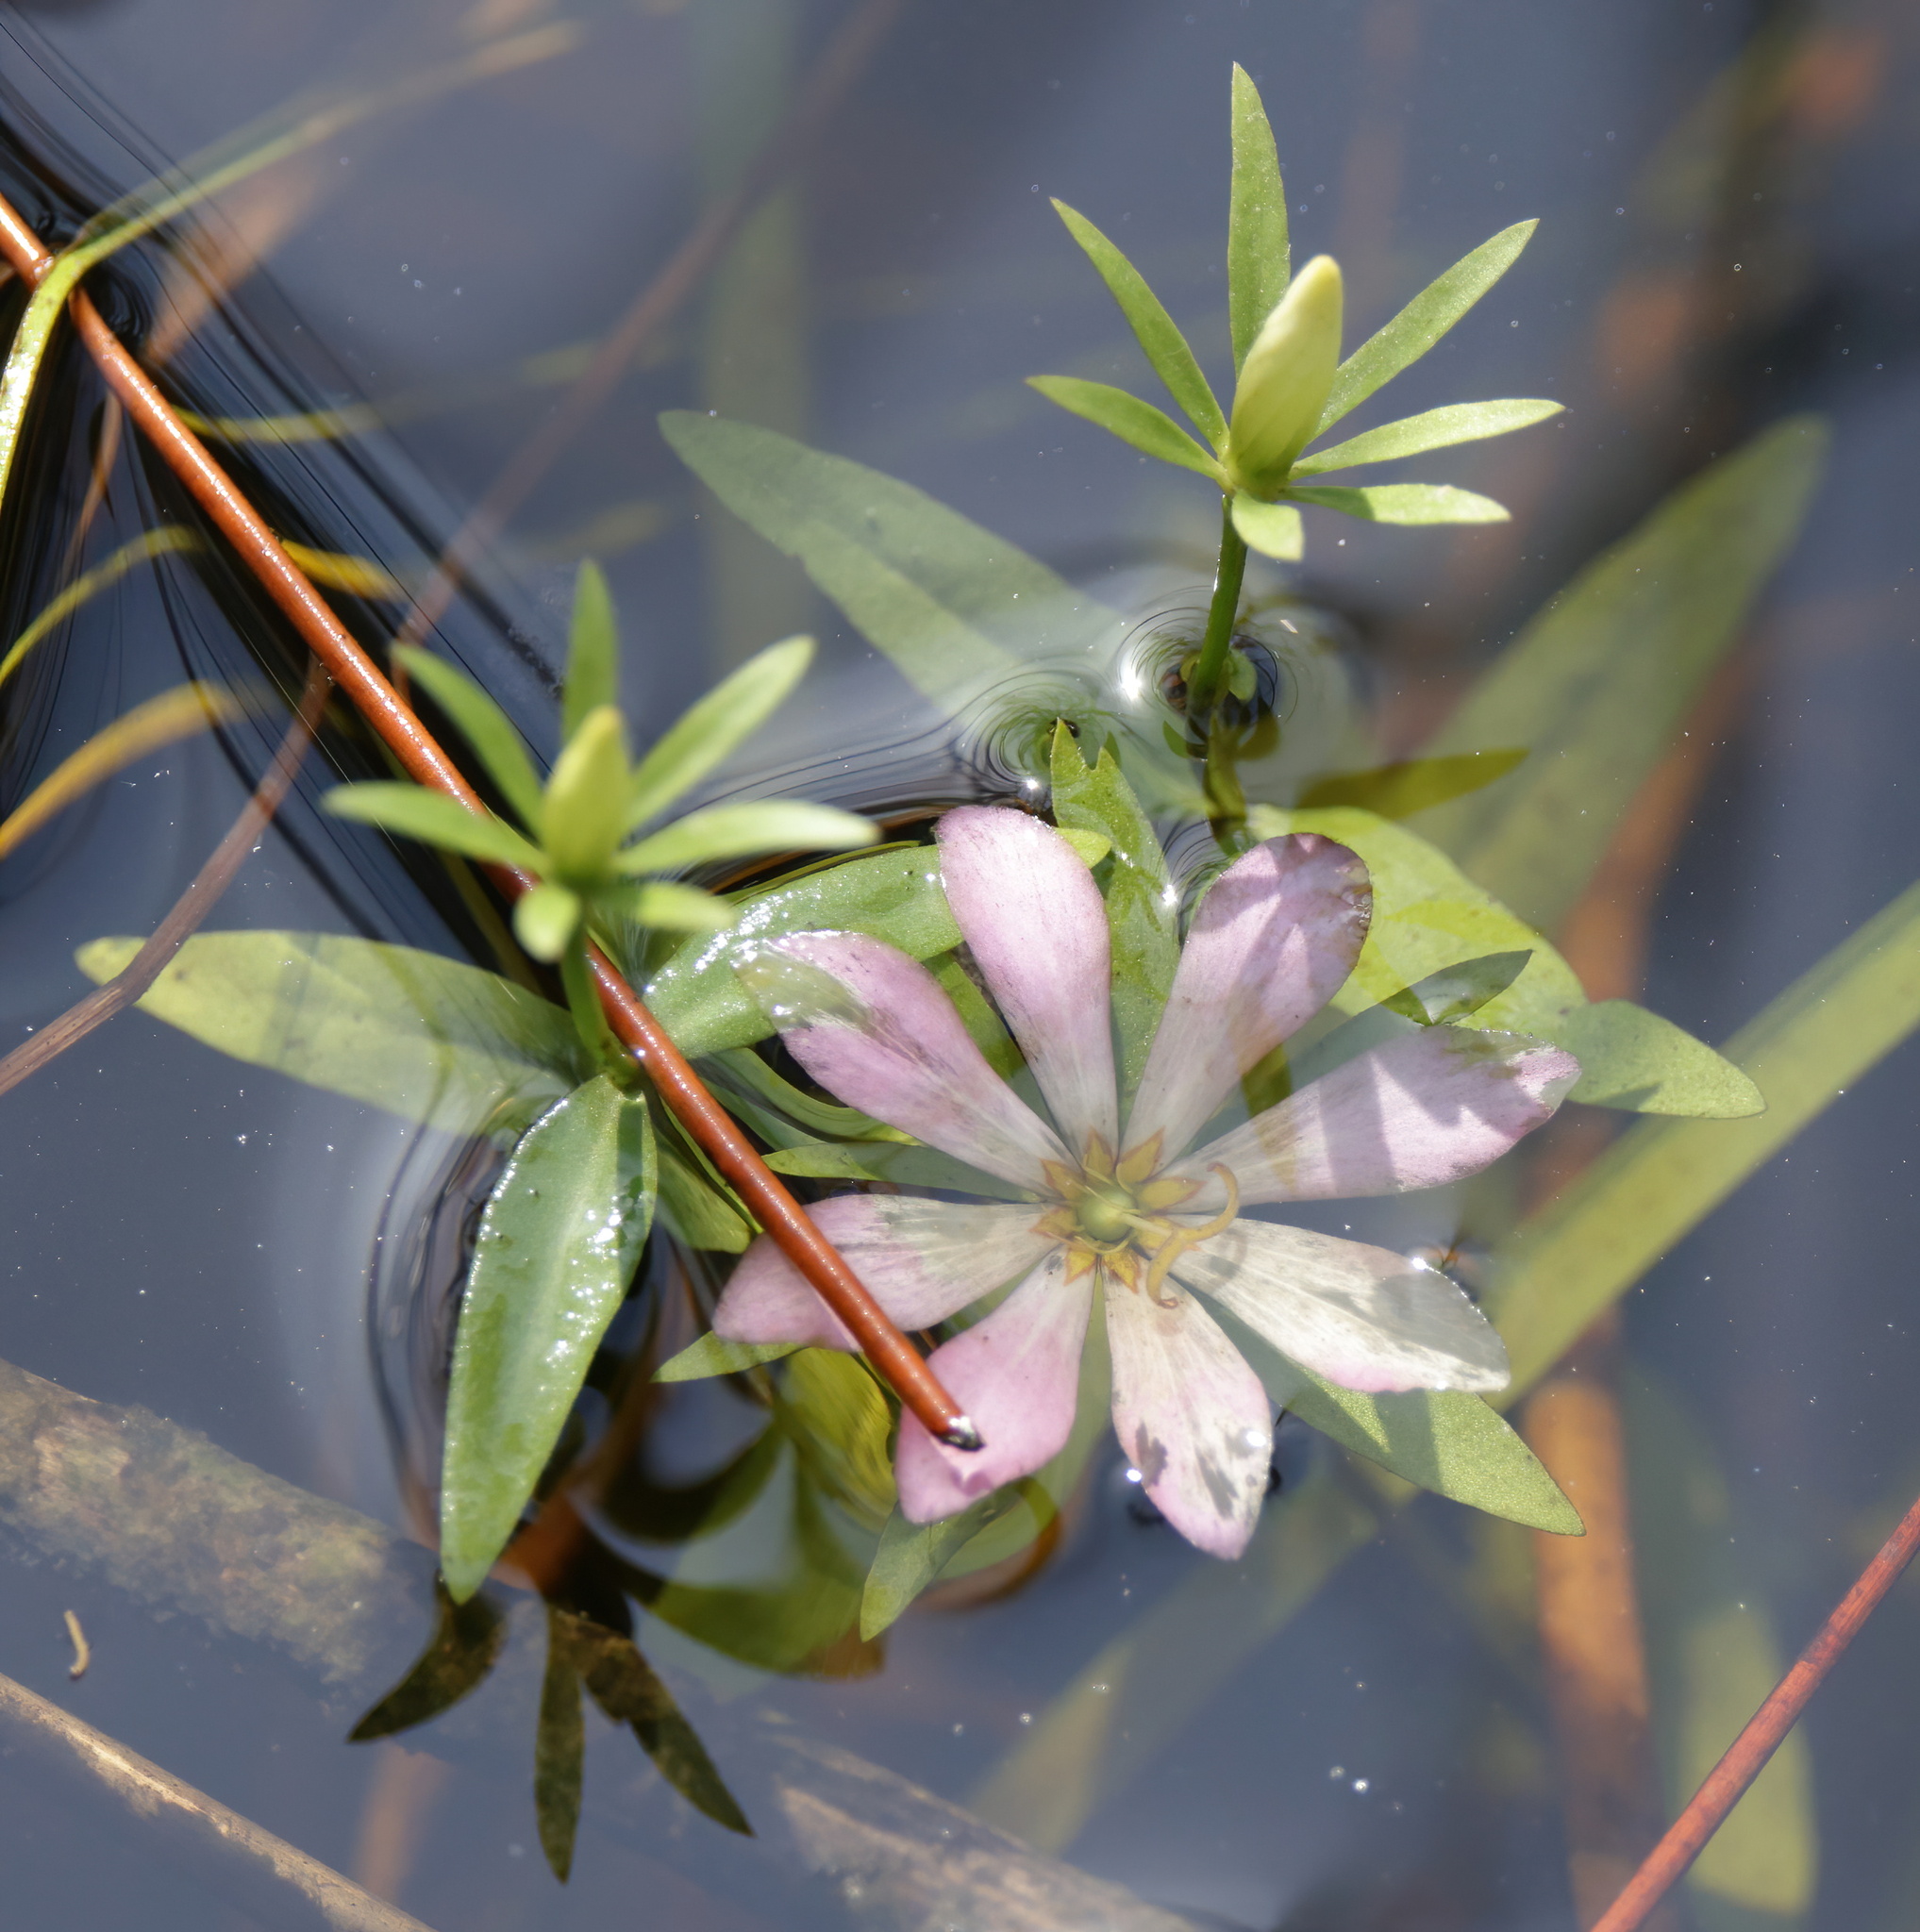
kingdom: Plantae
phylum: Tracheophyta
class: Magnoliopsida
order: Gentianales
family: Gentianaceae
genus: Sabatia
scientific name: Sabatia foliosa
